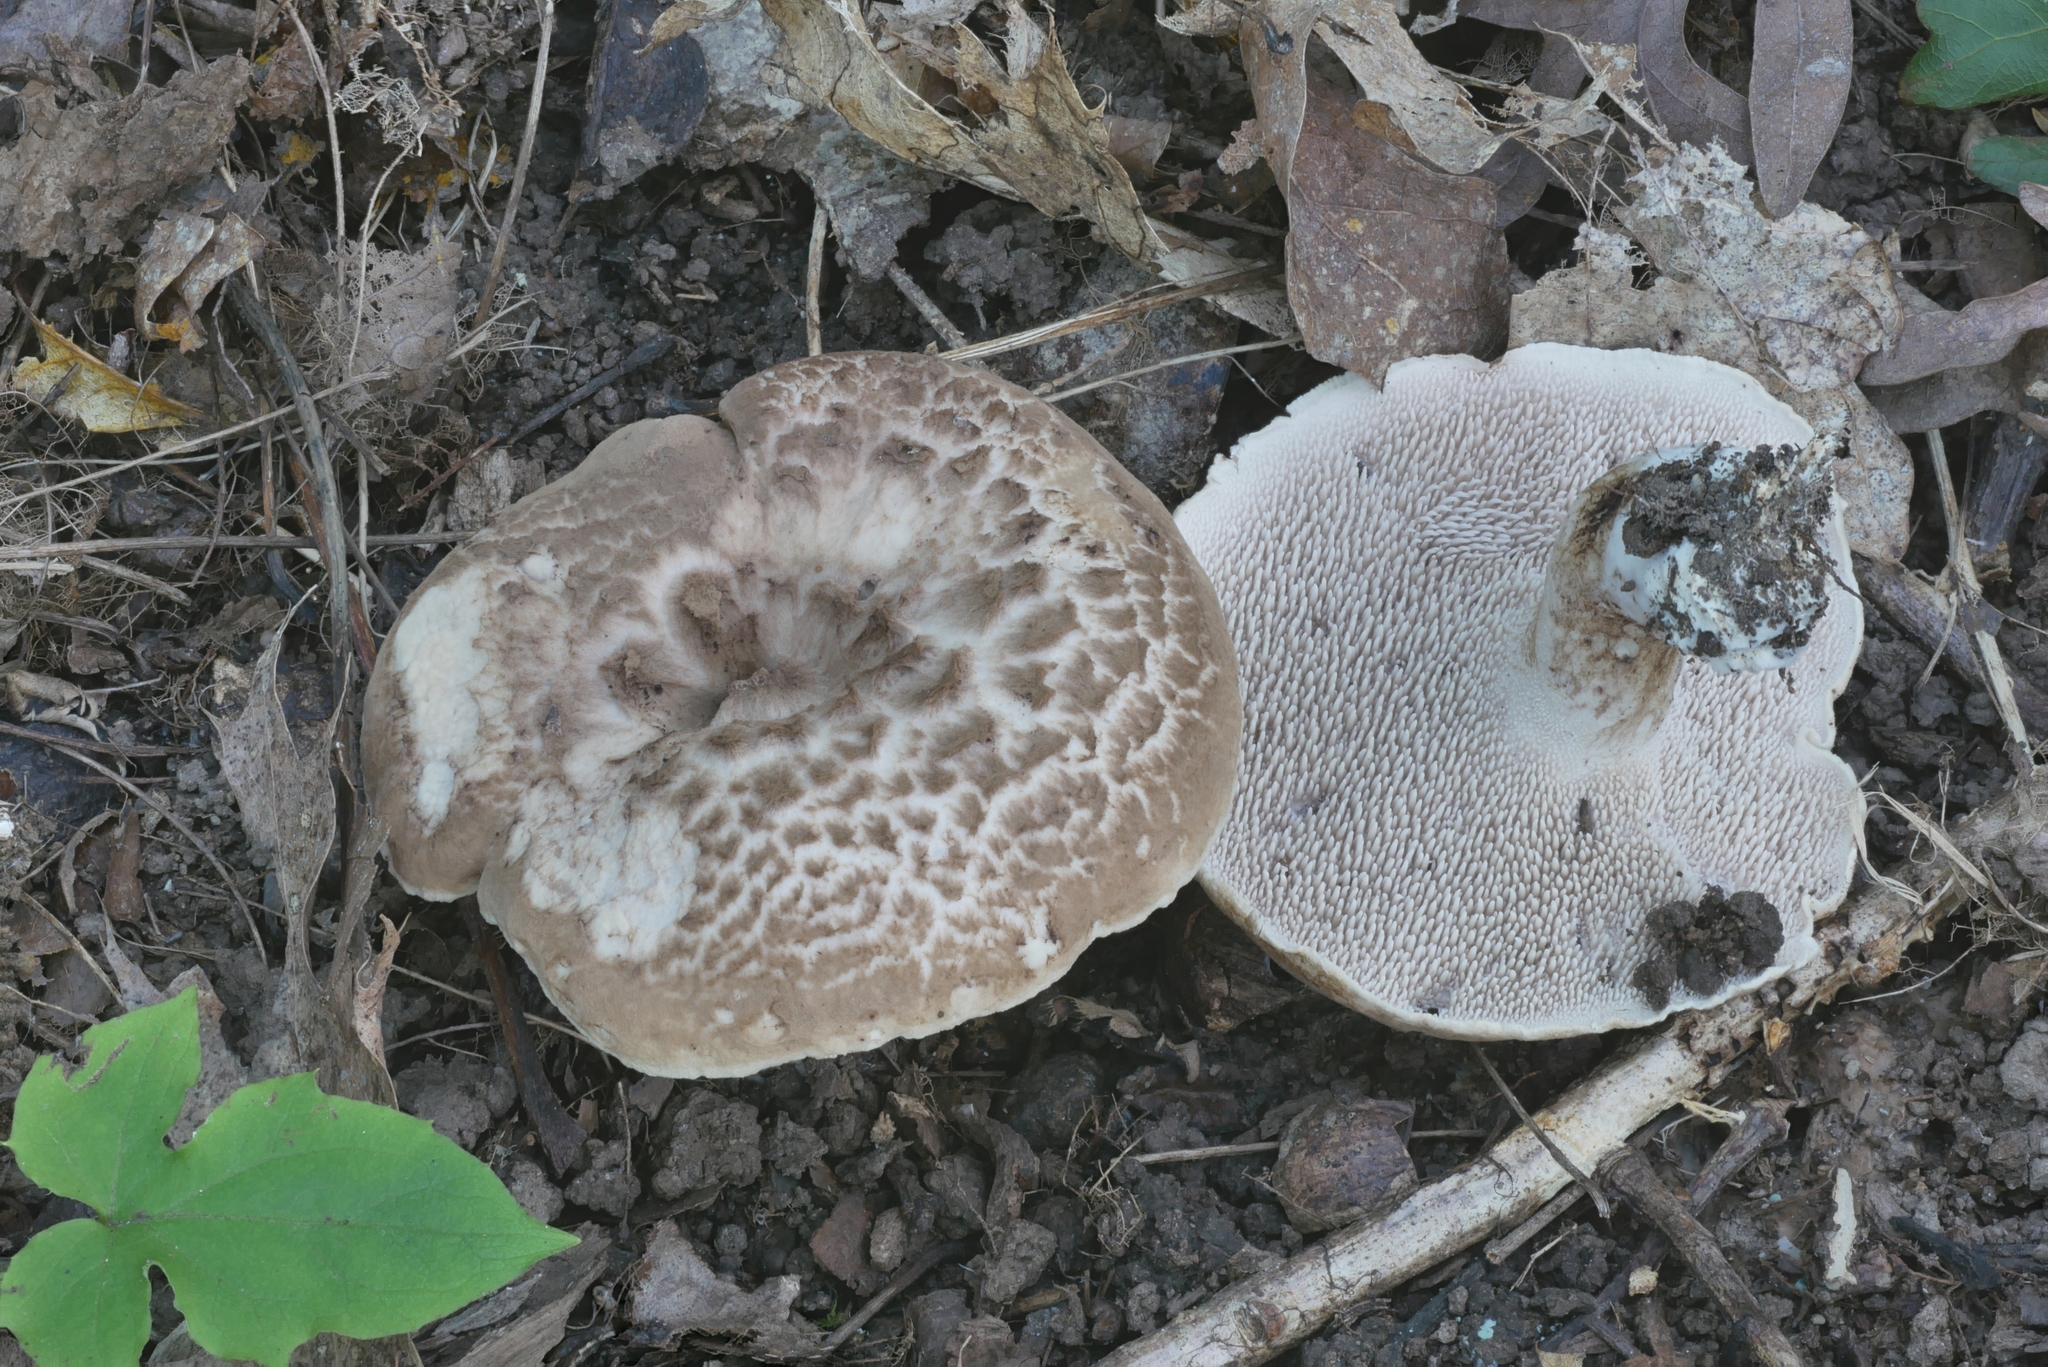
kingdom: Fungi
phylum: Basidiomycota
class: Agaricomycetes
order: Thelephorales
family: Bankeraceae
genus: Sarcodon
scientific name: Sarcodon quercinofibulatus
